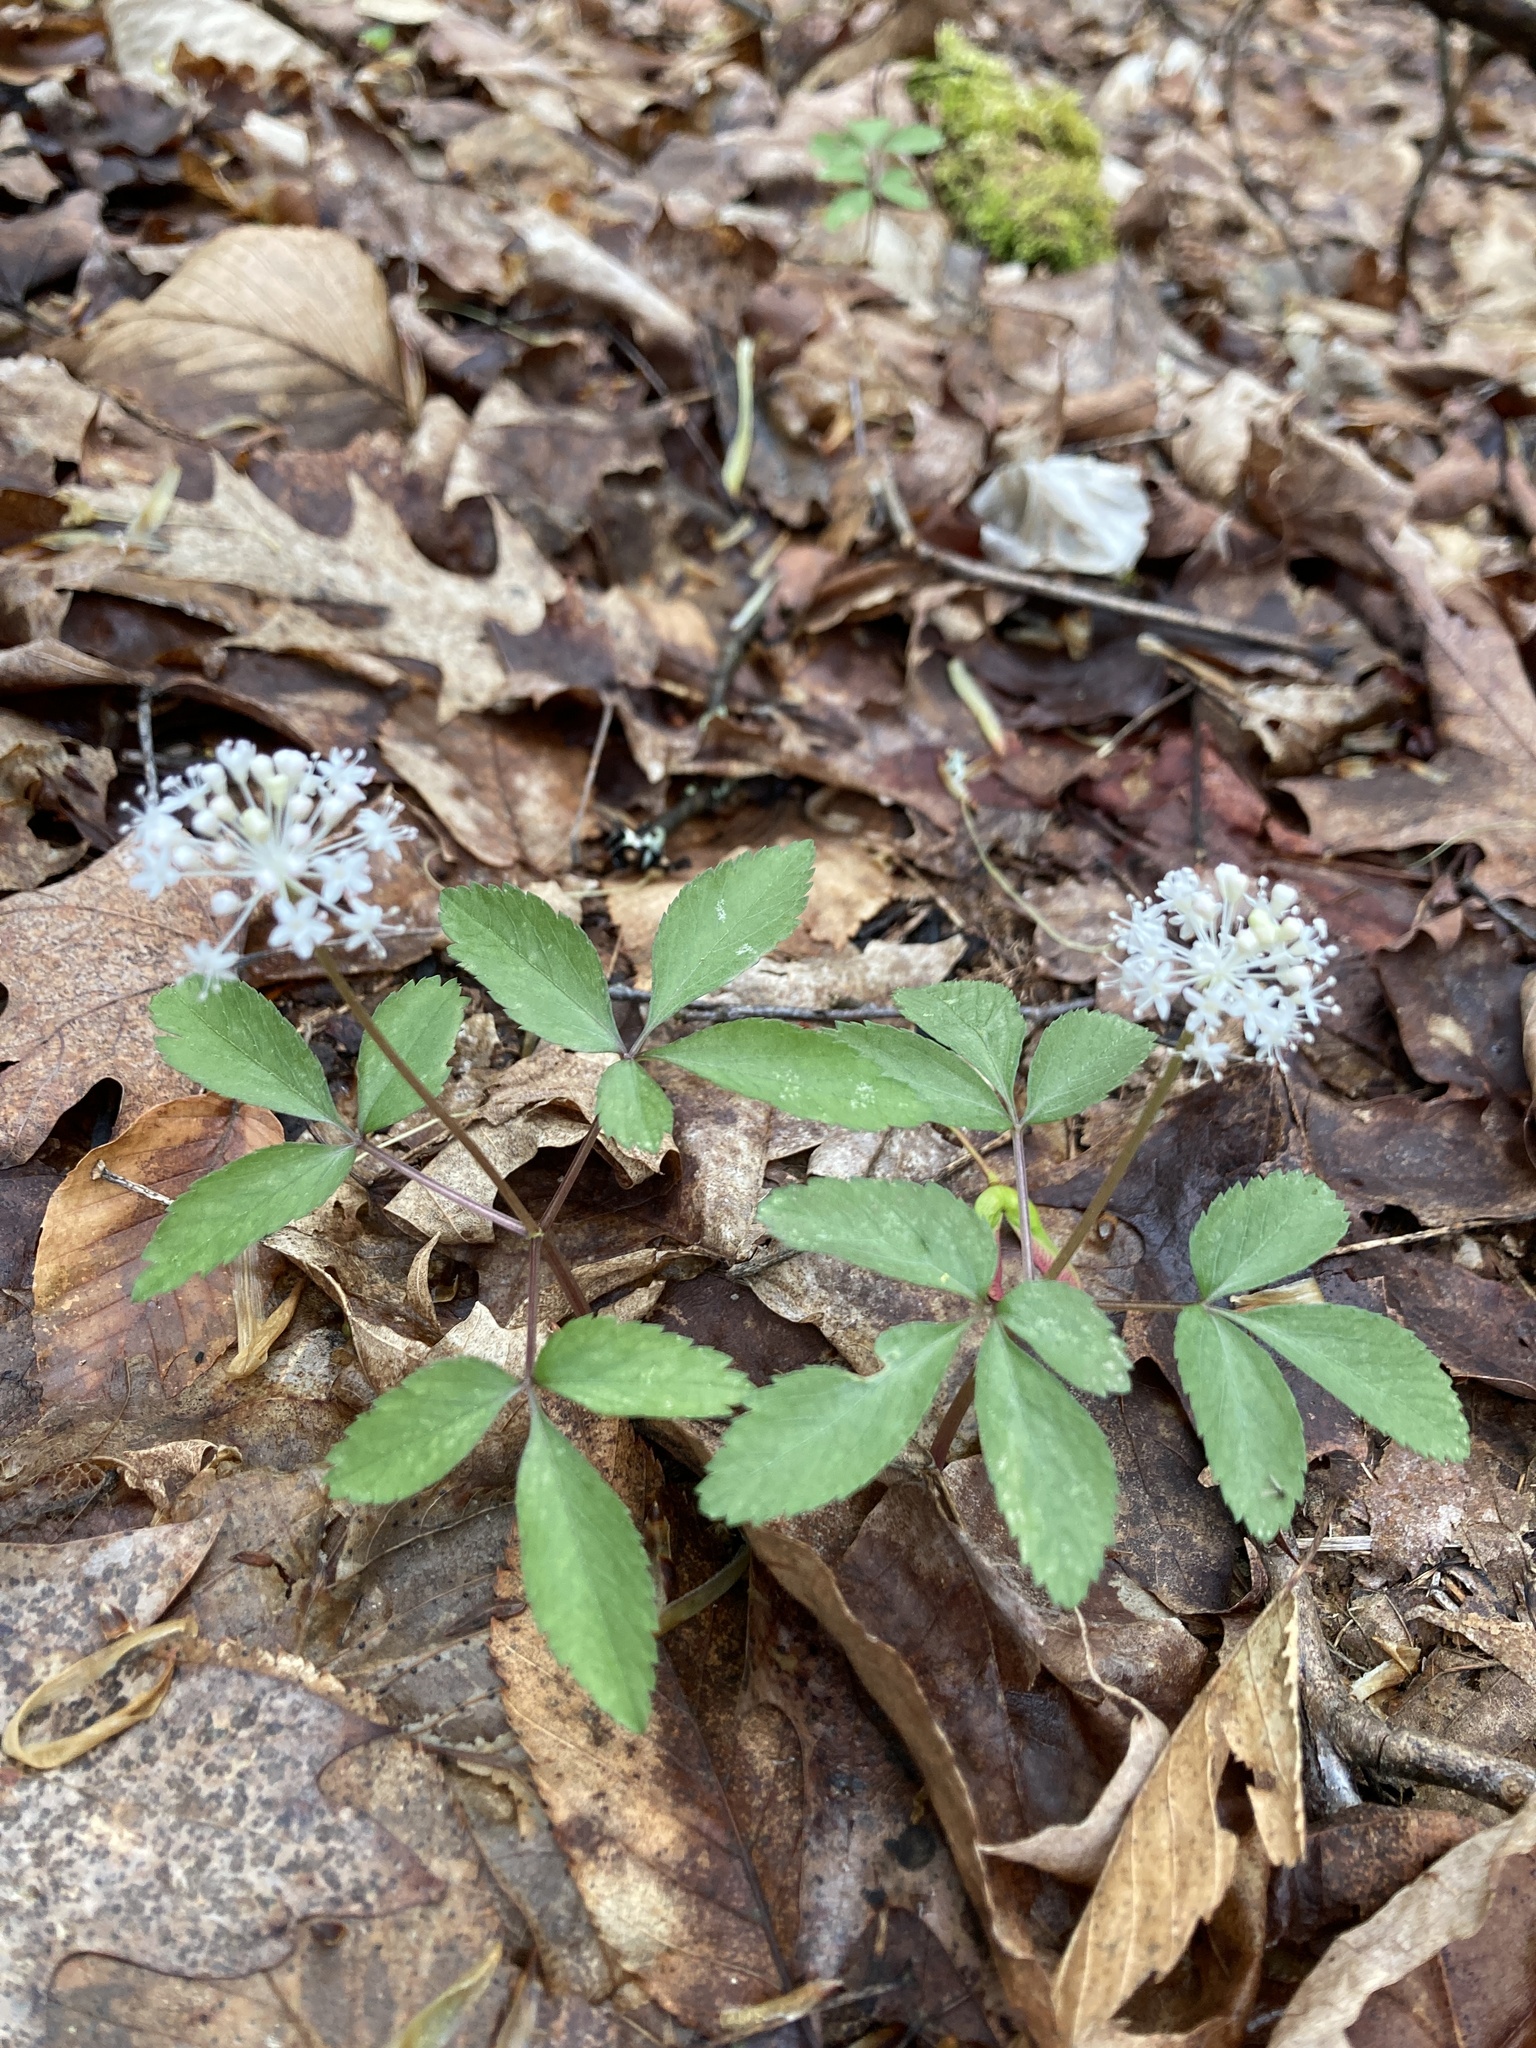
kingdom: Plantae
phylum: Tracheophyta
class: Magnoliopsida
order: Apiales
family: Araliaceae
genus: Panax
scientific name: Panax trifolius
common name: Dwarf ginseng
